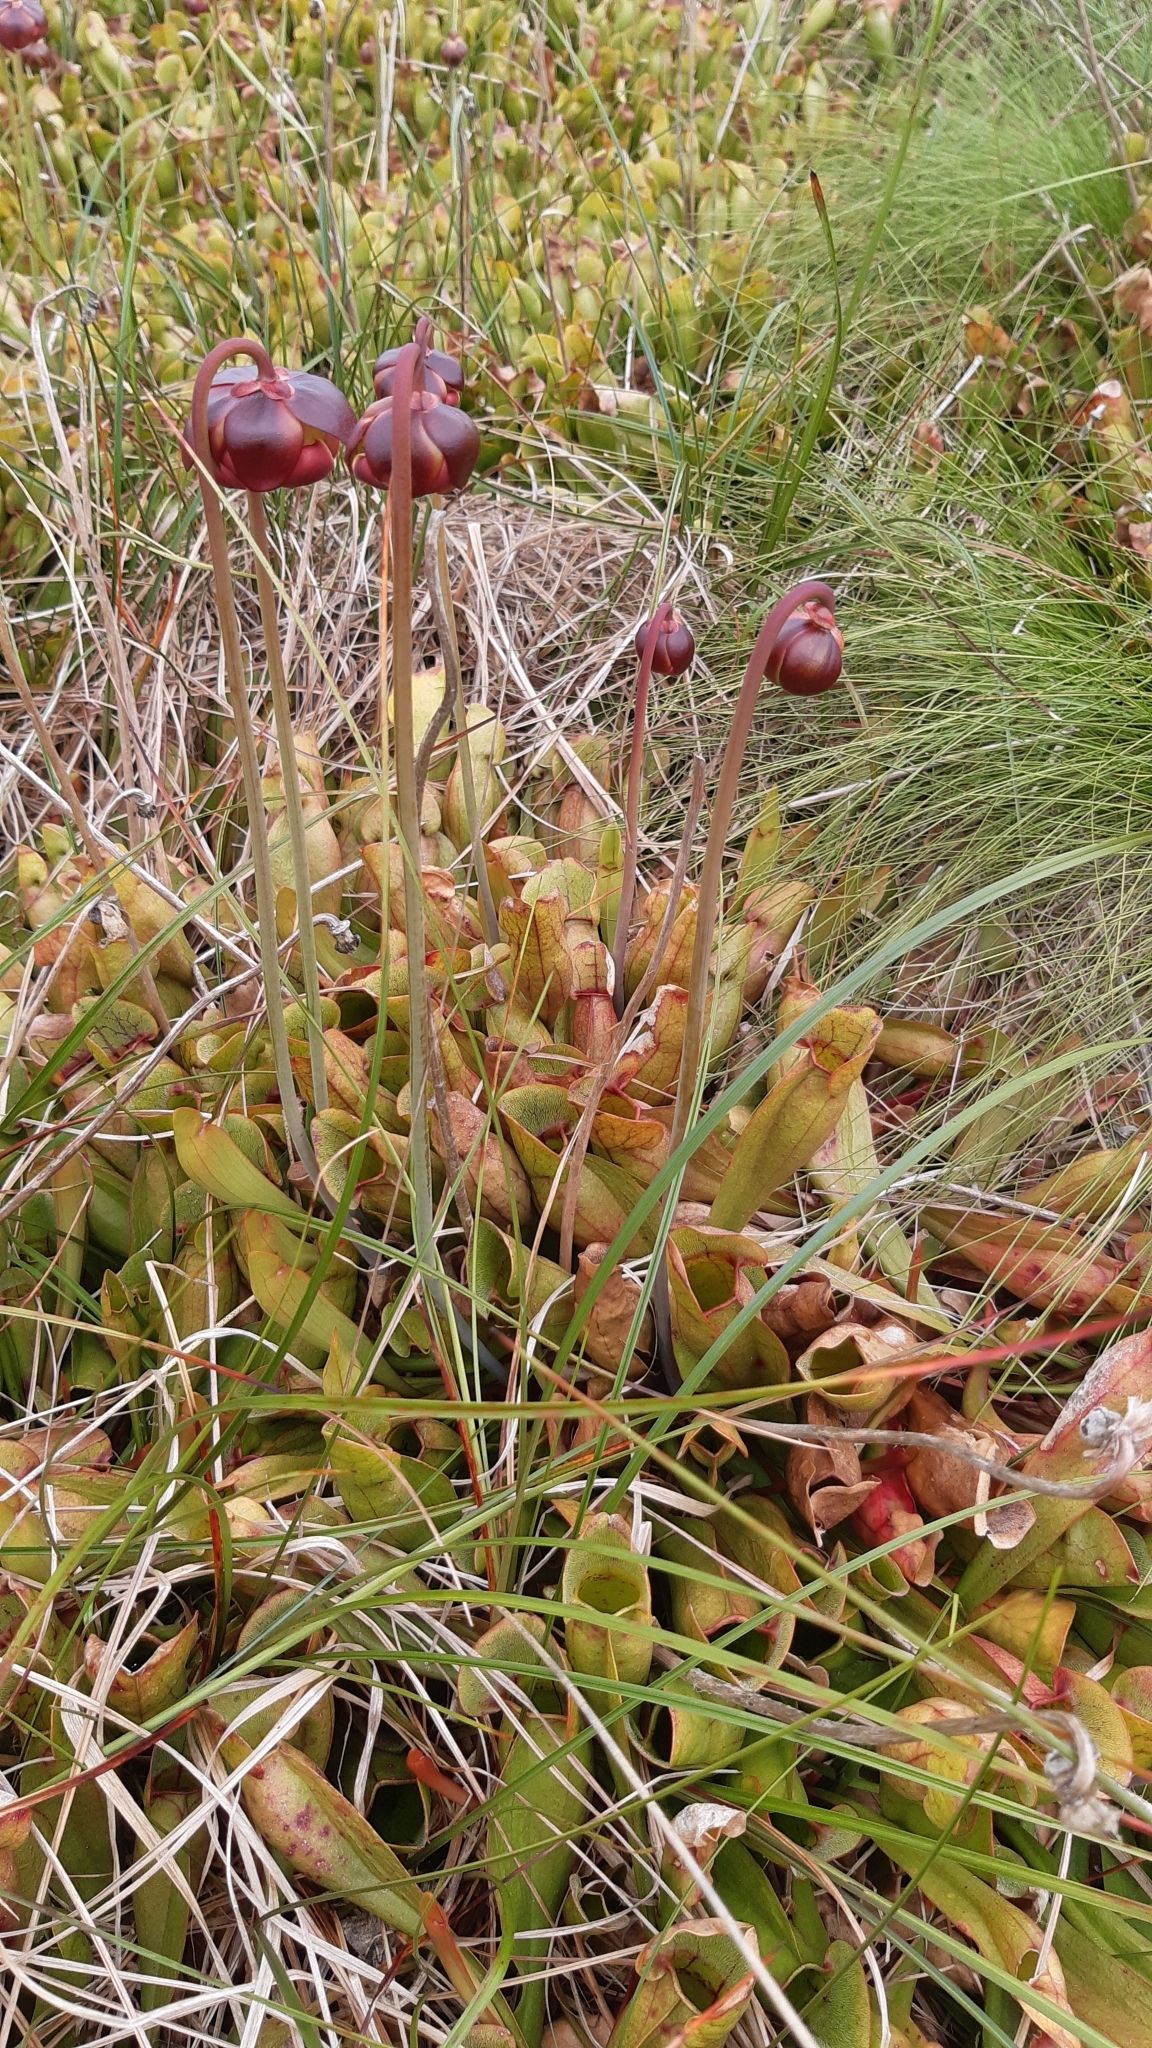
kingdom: Plantae
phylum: Tracheophyta
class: Magnoliopsida
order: Ericales
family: Sarraceniaceae
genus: Sarracenia
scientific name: Sarracenia purpurea
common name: Pitcherplant
